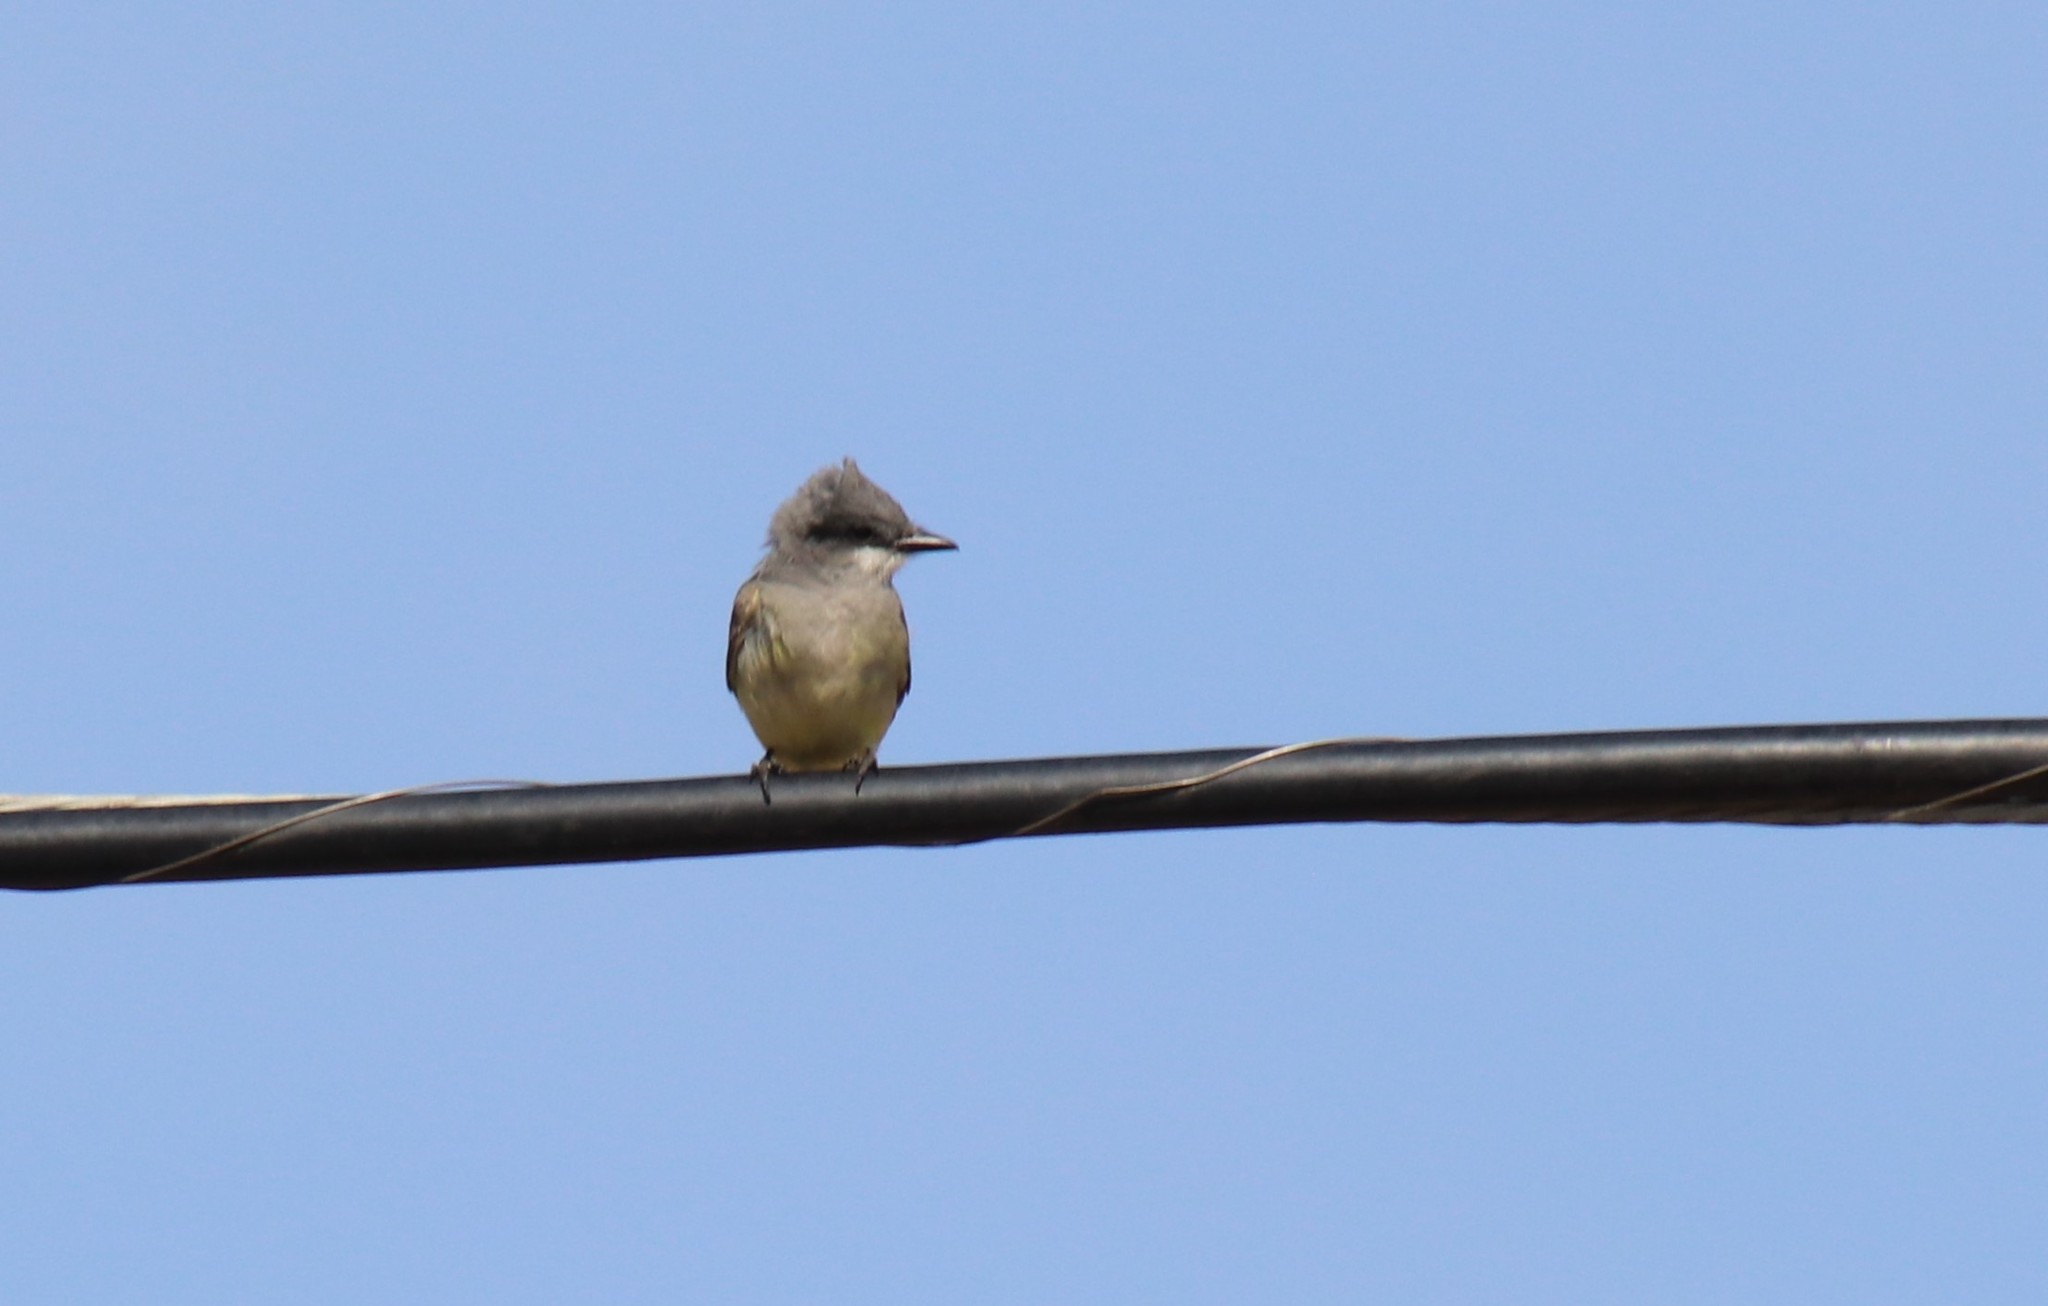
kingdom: Animalia
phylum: Chordata
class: Aves
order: Passeriformes
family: Tyrannidae
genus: Tyrannus
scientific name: Tyrannus vociferans
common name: Cassin's kingbird
